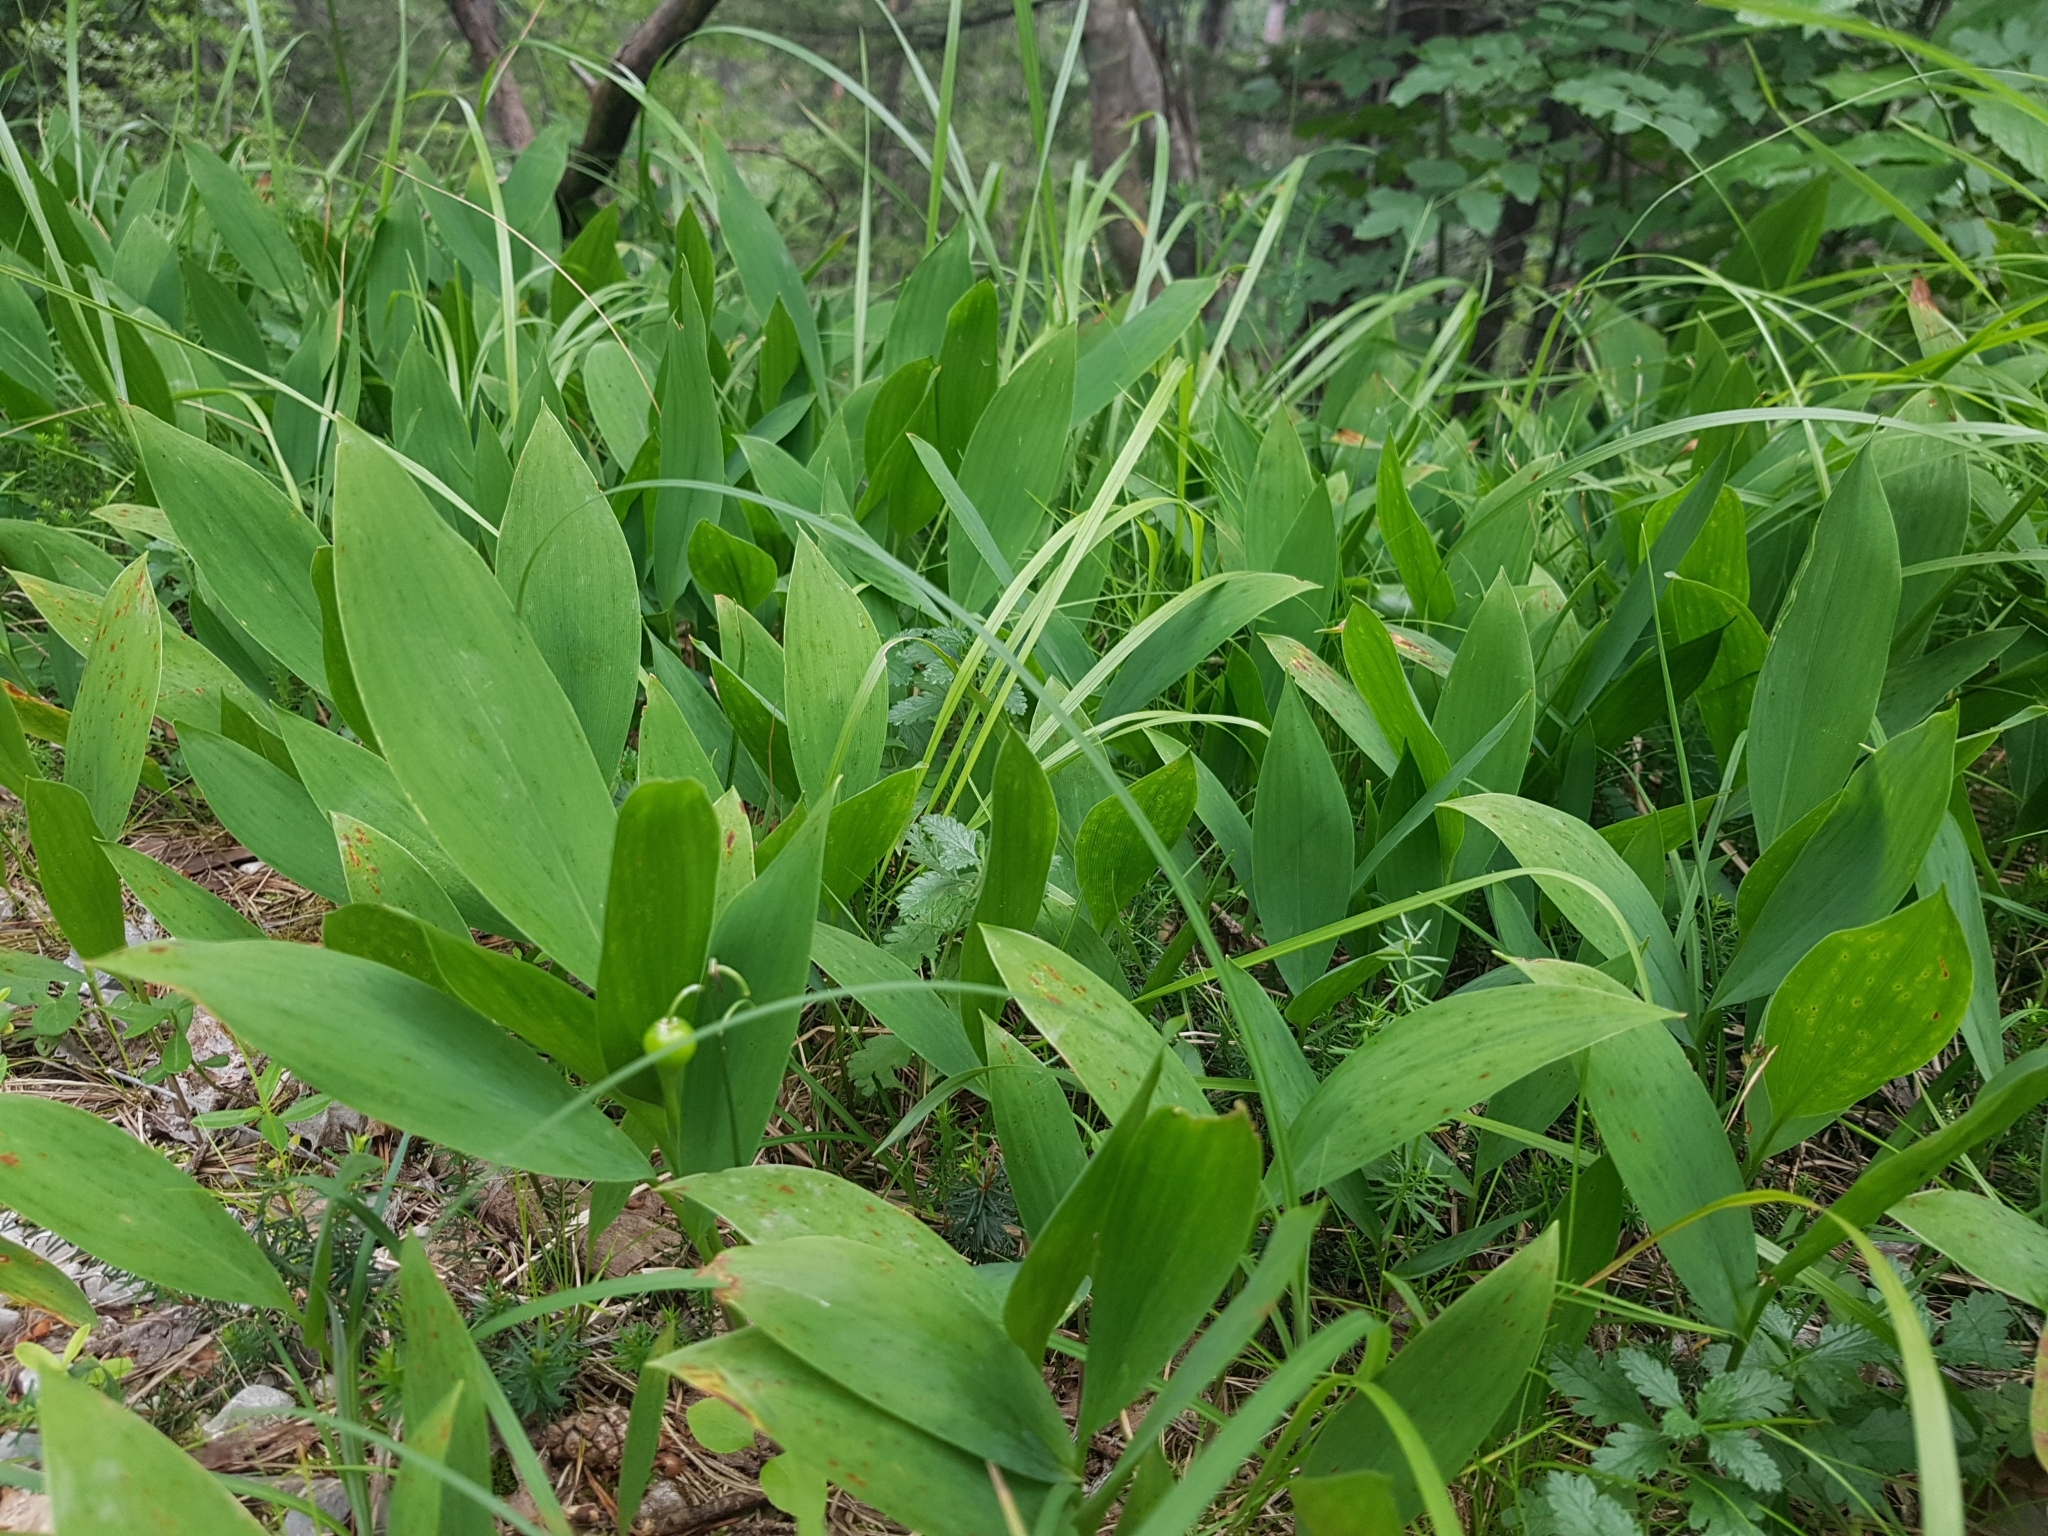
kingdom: Plantae
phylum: Tracheophyta
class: Liliopsida
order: Asparagales
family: Asparagaceae
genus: Convallaria
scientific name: Convallaria majalis
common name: Lily-of-the-valley
